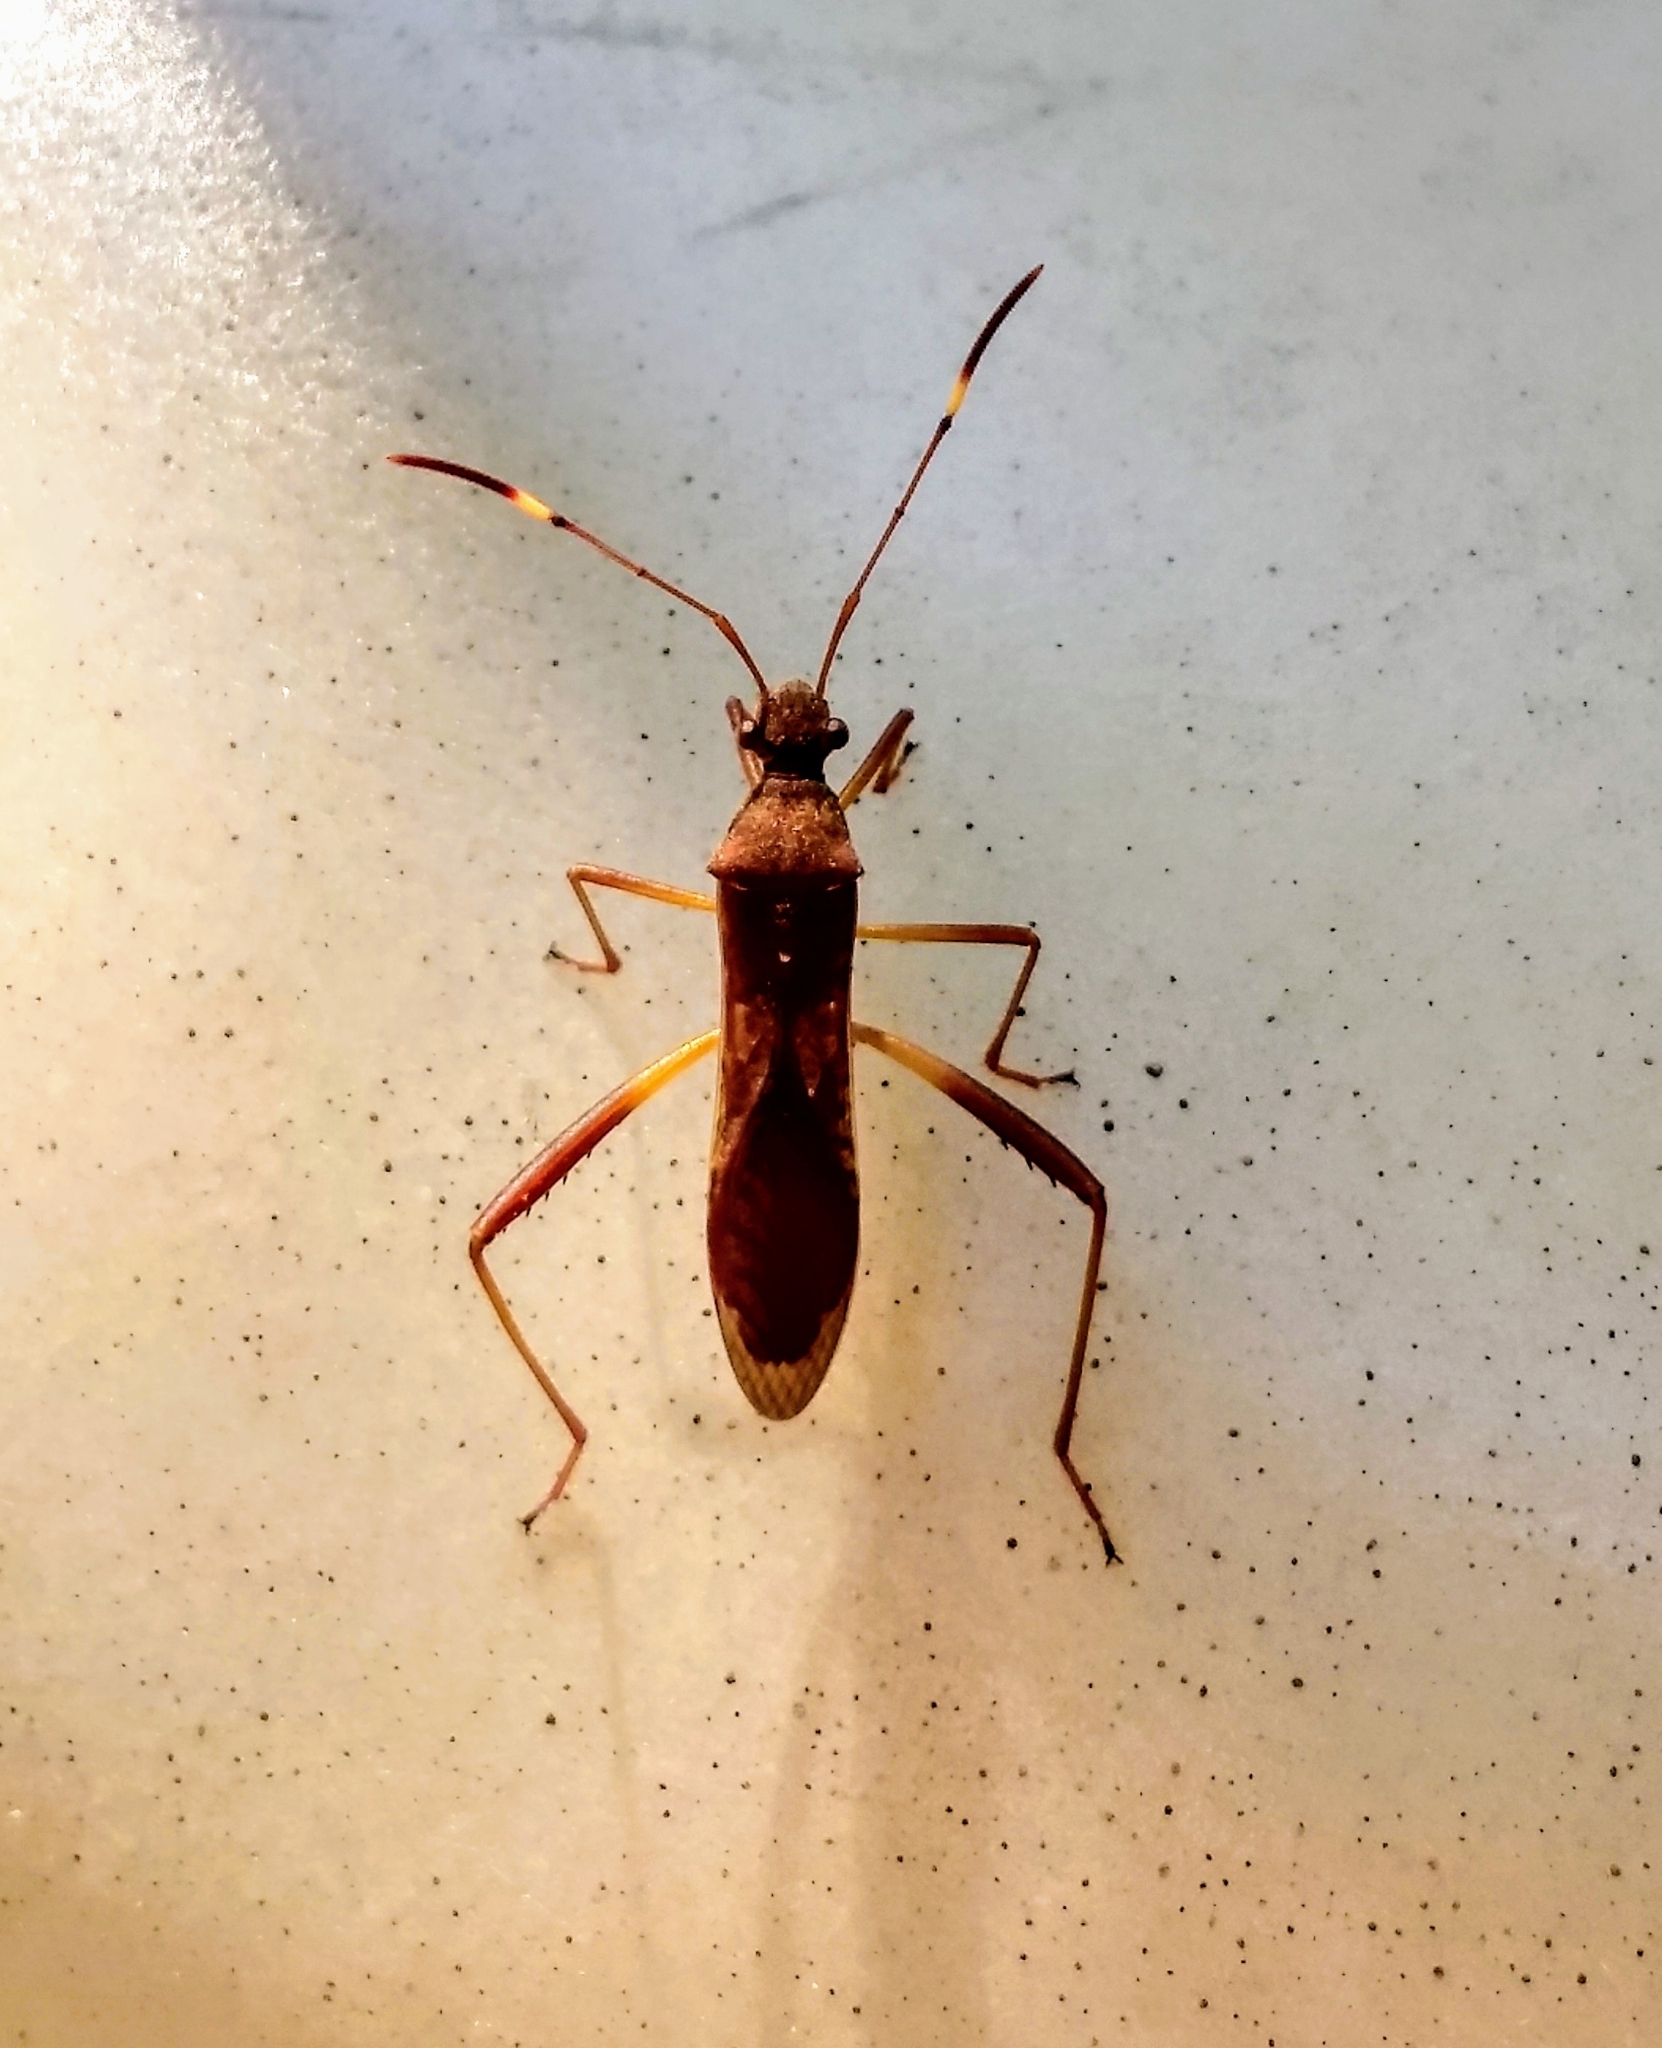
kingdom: Animalia
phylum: Arthropoda
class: Insecta
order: Hemiptera
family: Alydidae
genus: Megalotomus
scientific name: Megalotomus quinquespinosus
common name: Lupine bug
